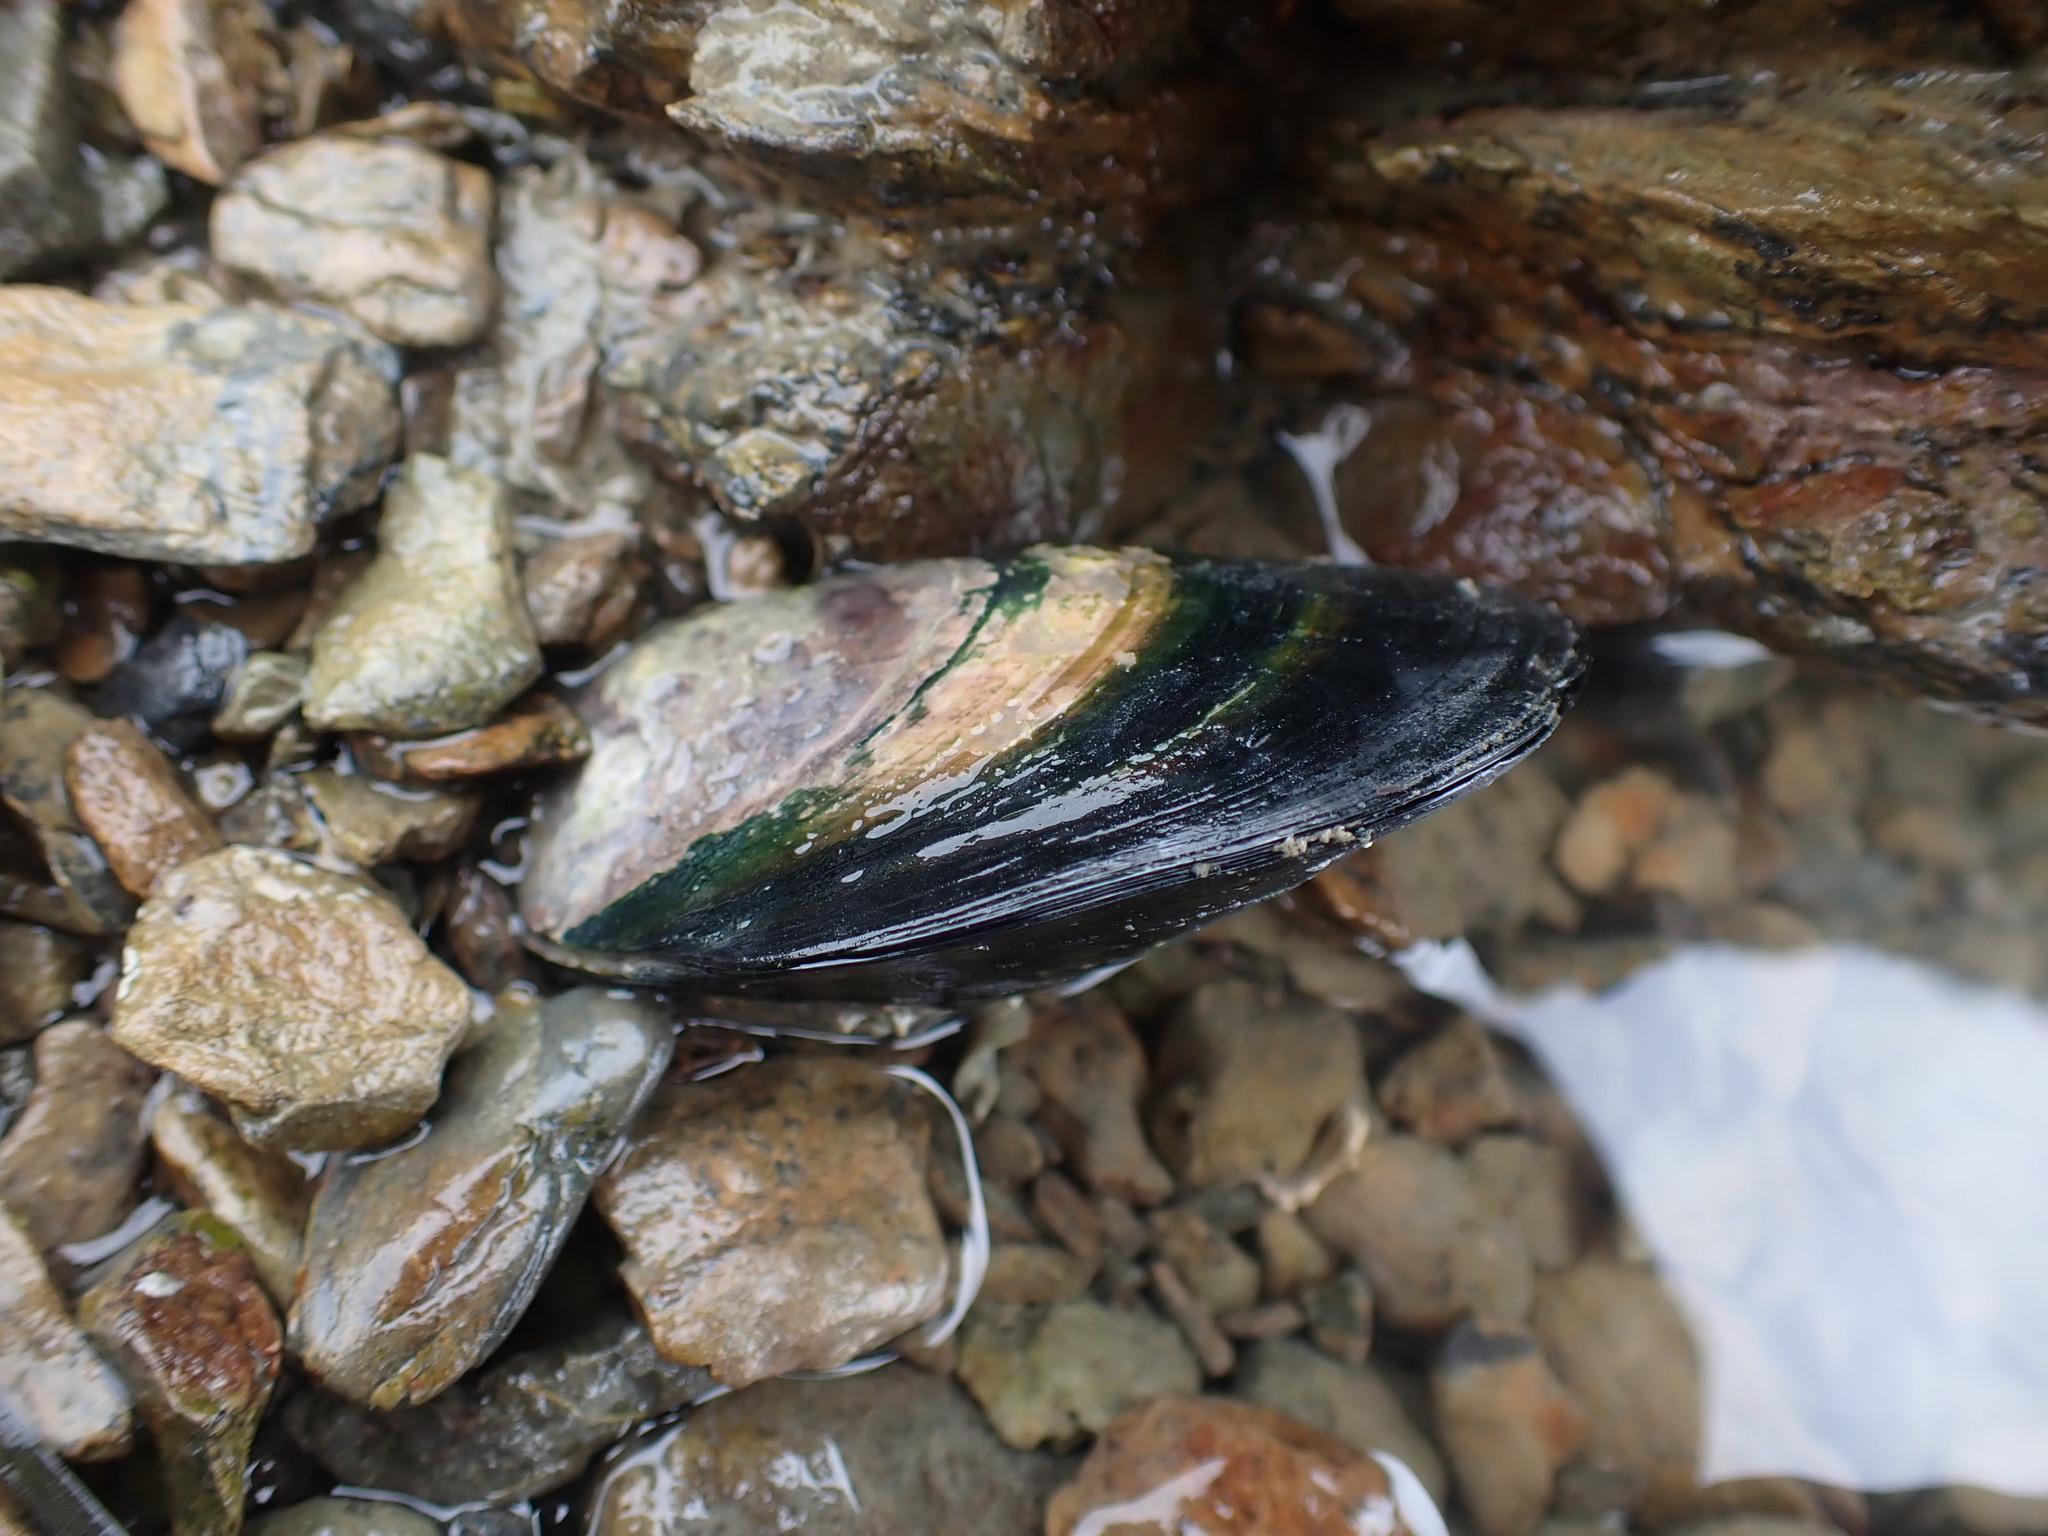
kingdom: Animalia
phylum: Mollusca
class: Bivalvia
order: Mytilida
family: Mytilidae
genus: Perna
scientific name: Perna canaliculus
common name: New zealand greenshelltm
